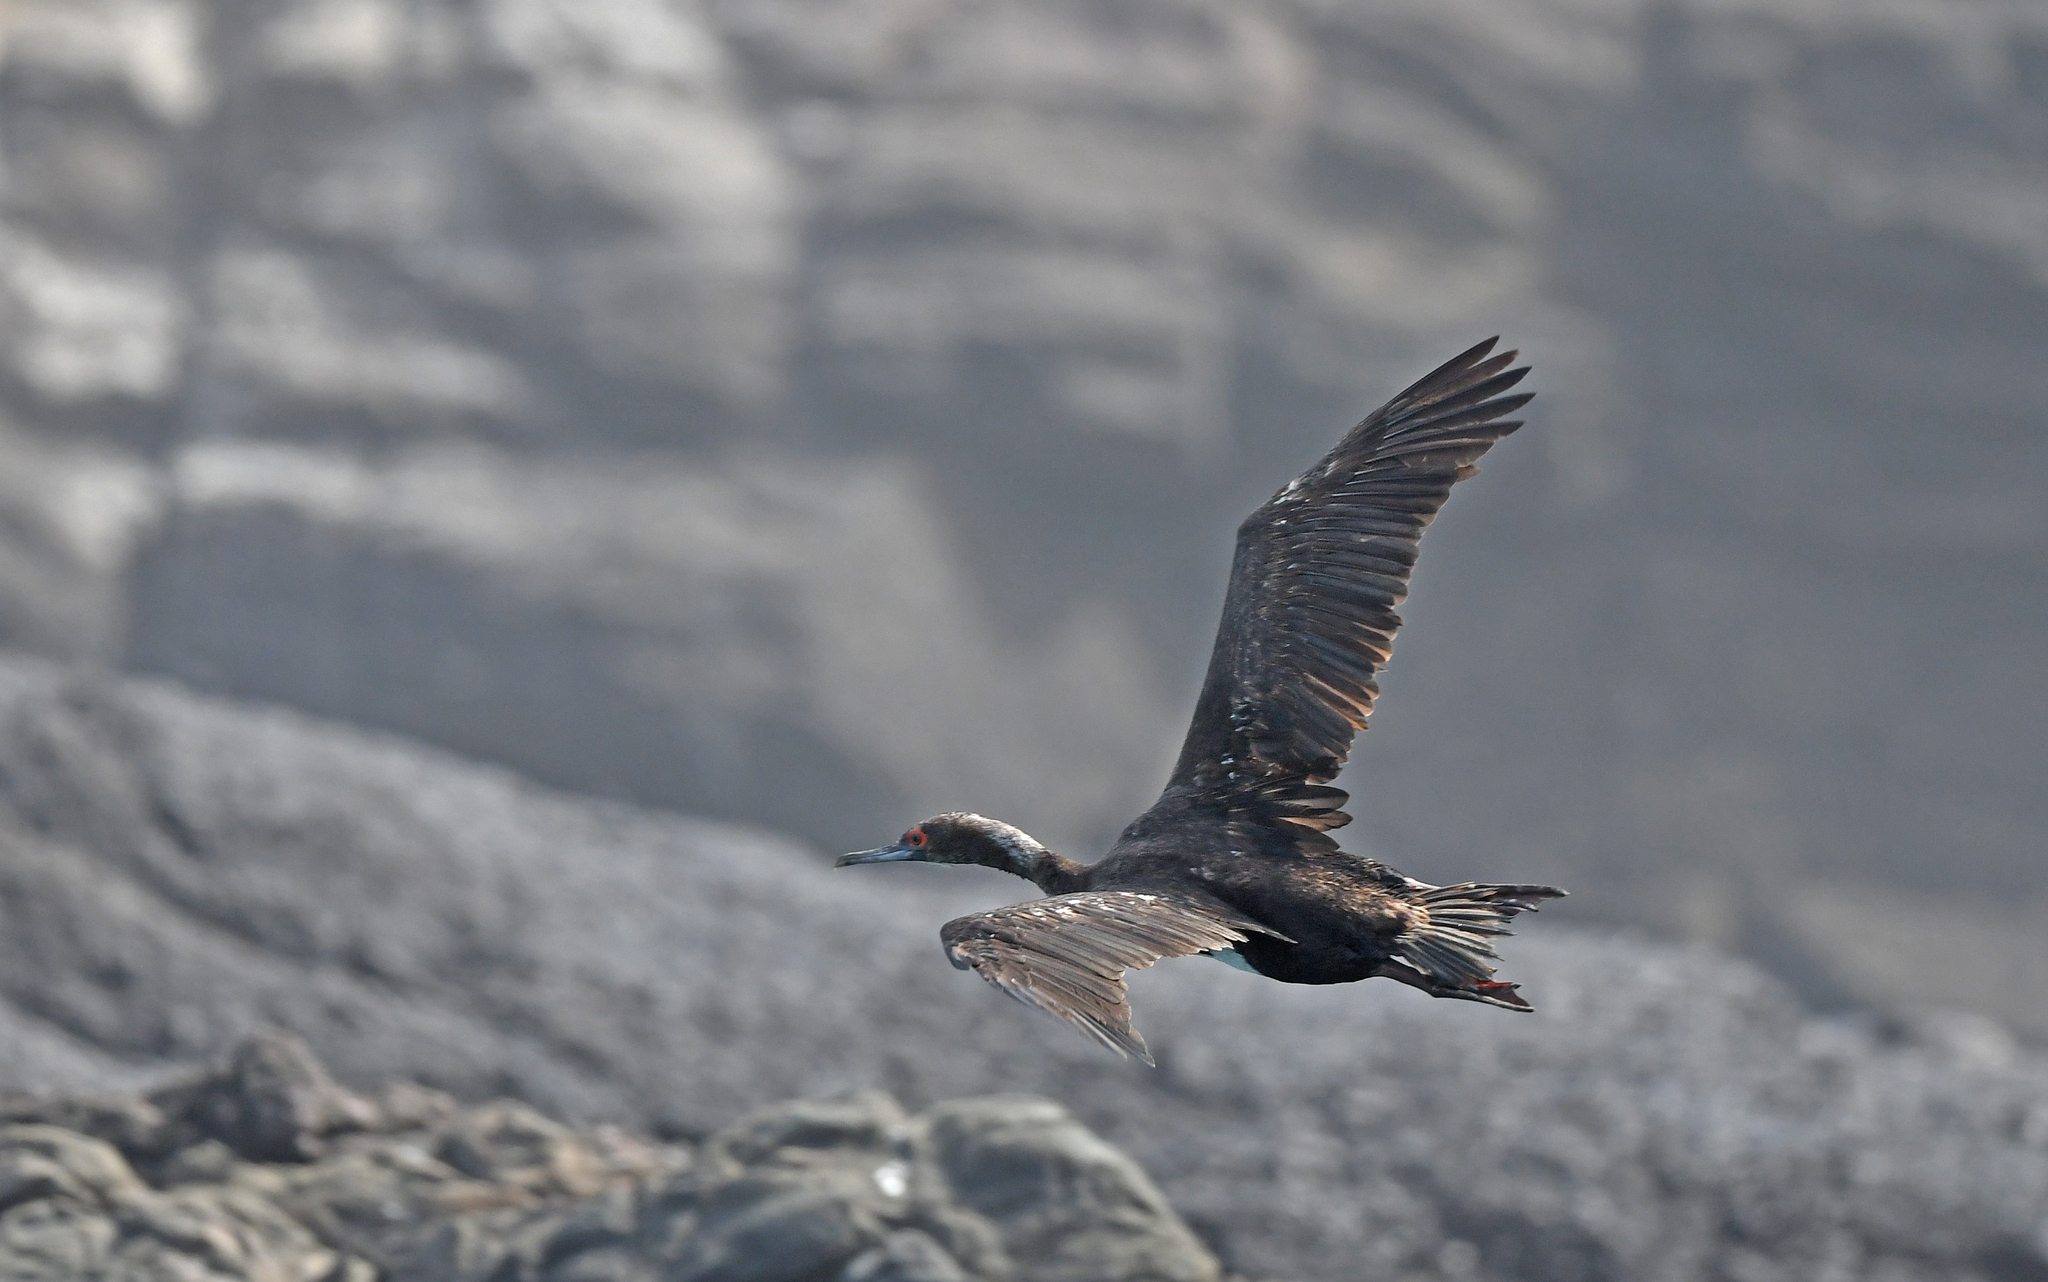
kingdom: Animalia
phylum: Chordata
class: Aves
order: Suliformes
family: Phalacrocoracidae
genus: Leucocarbo
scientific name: Leucocarbo bougainvillii
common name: Guanay cormorant
